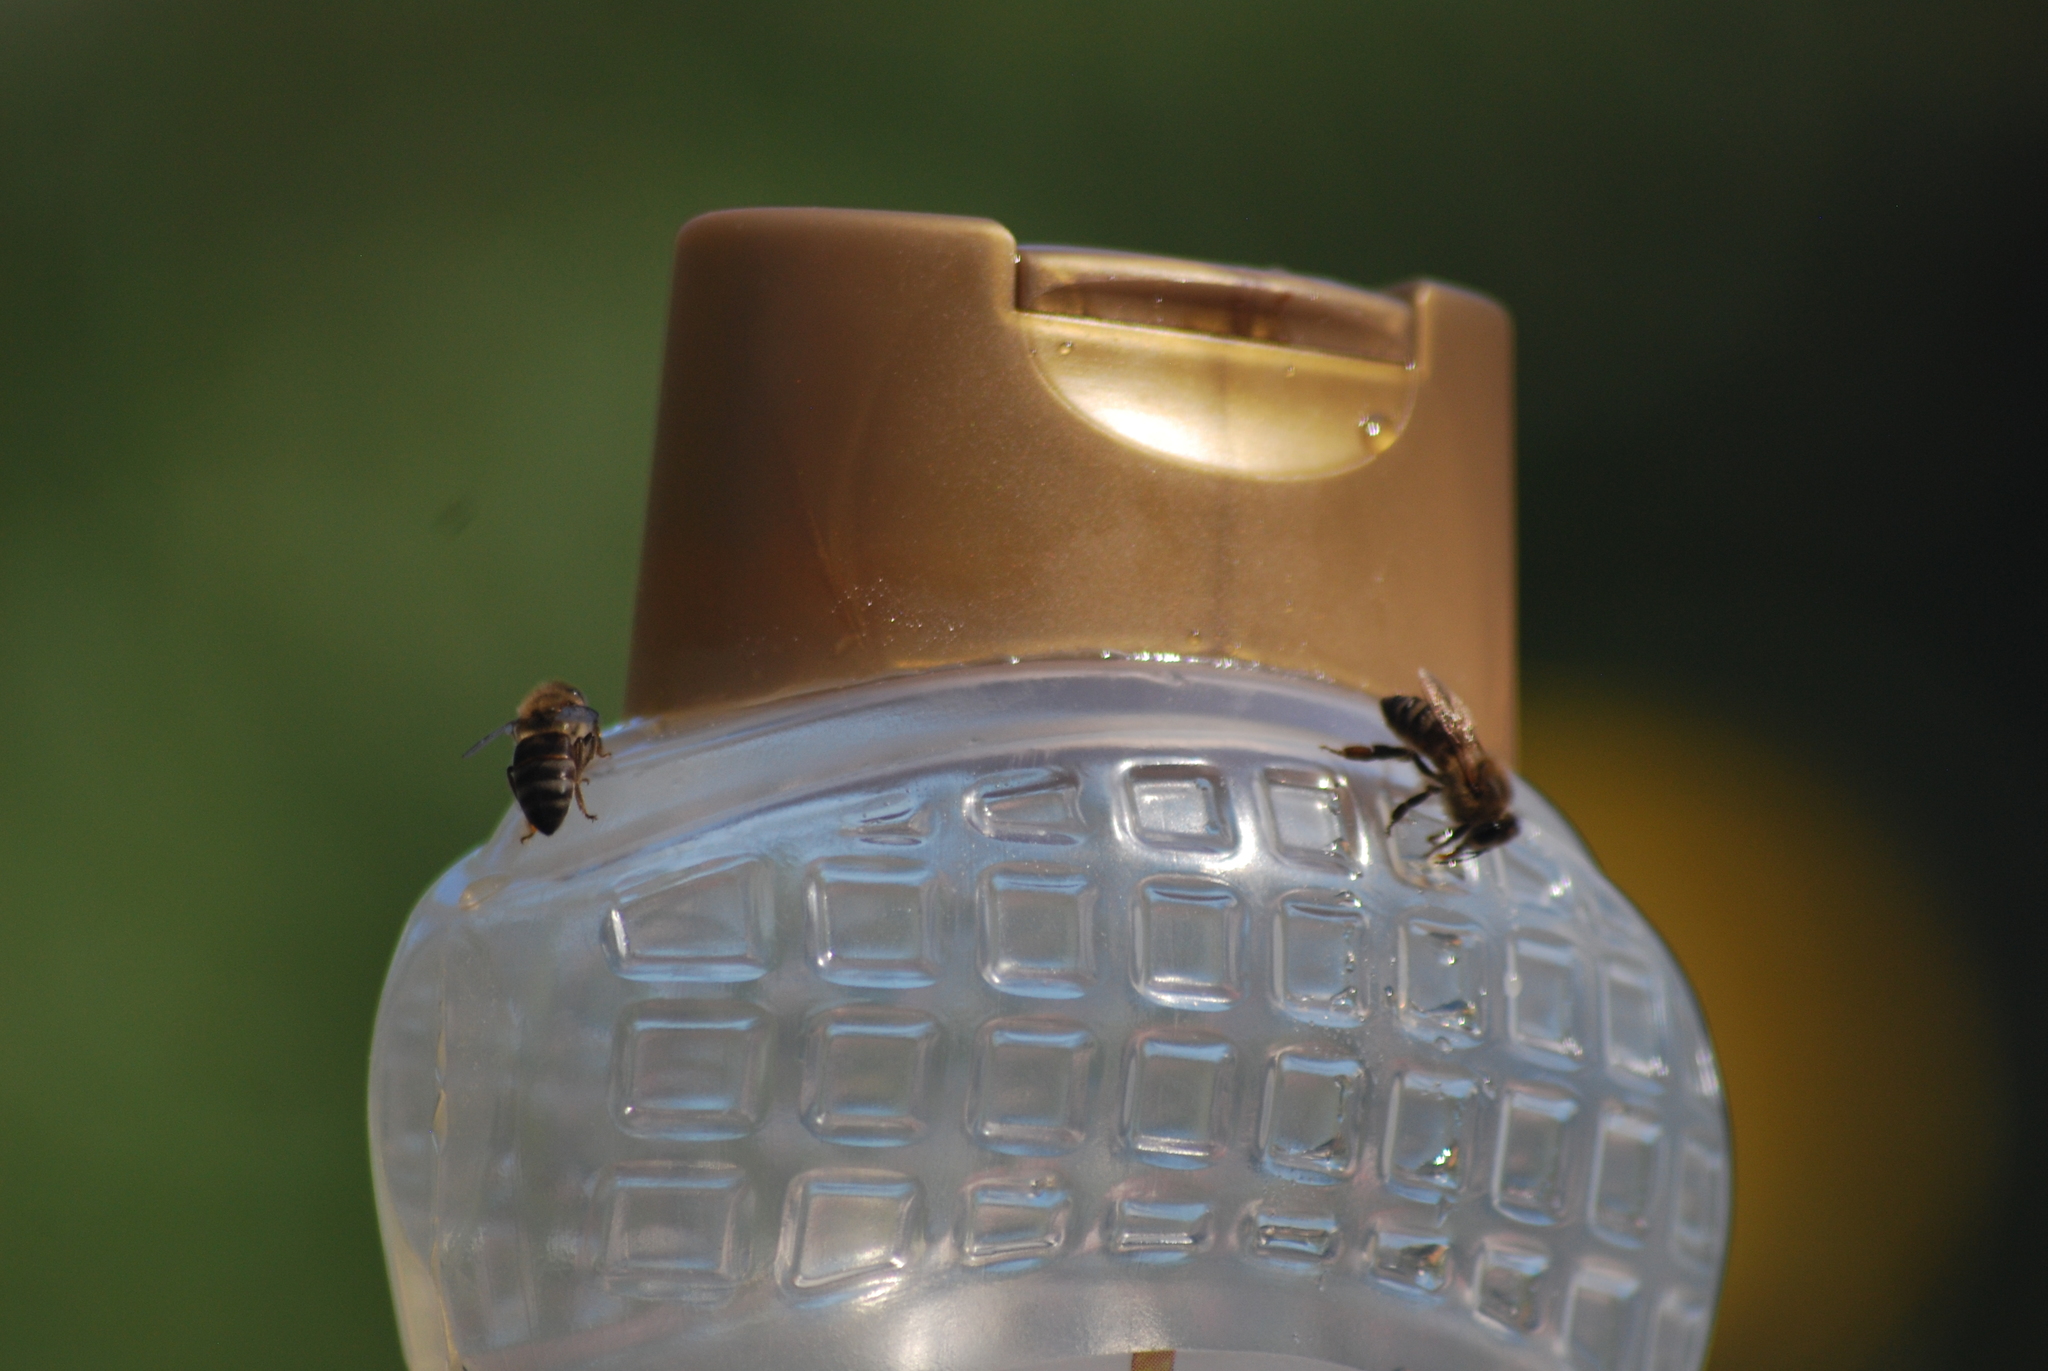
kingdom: Animalia
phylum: Arthropoda
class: Insecta
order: Hymenoptera
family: Apidae
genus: Apis
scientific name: Apis mellifera
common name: Honey bee
